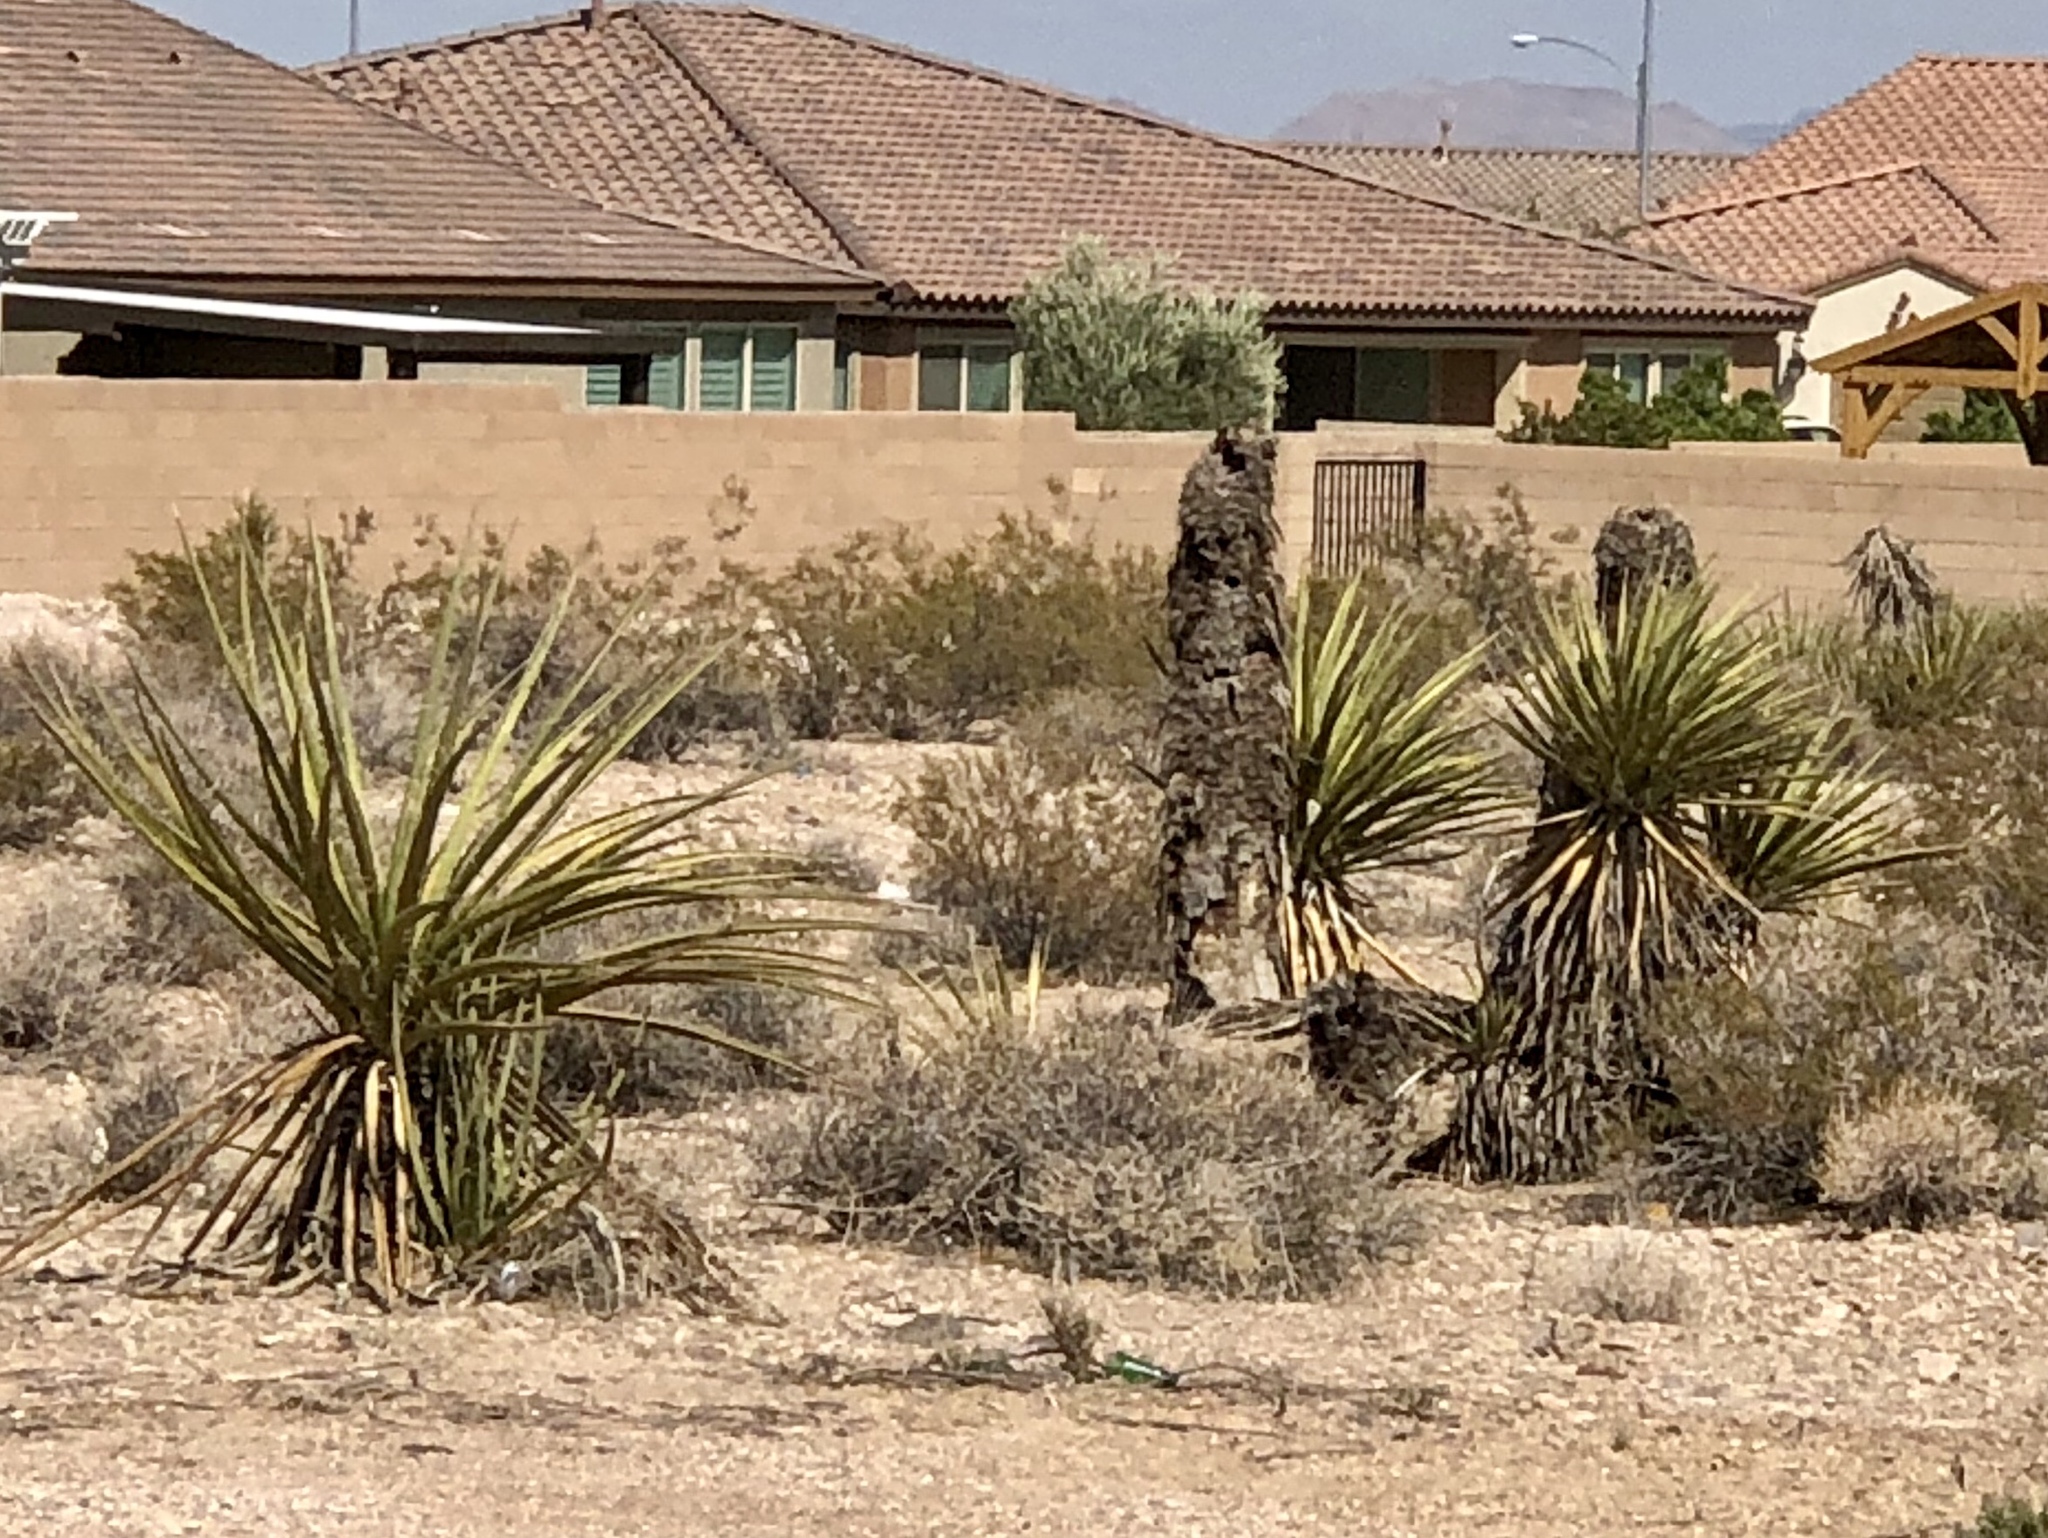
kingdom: Plantae
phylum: Tracheophyta
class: Liliopsida
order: Asparagales
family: Asparagaceae
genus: Yucca
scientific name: Yucca schidigera
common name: Mojave yucca
